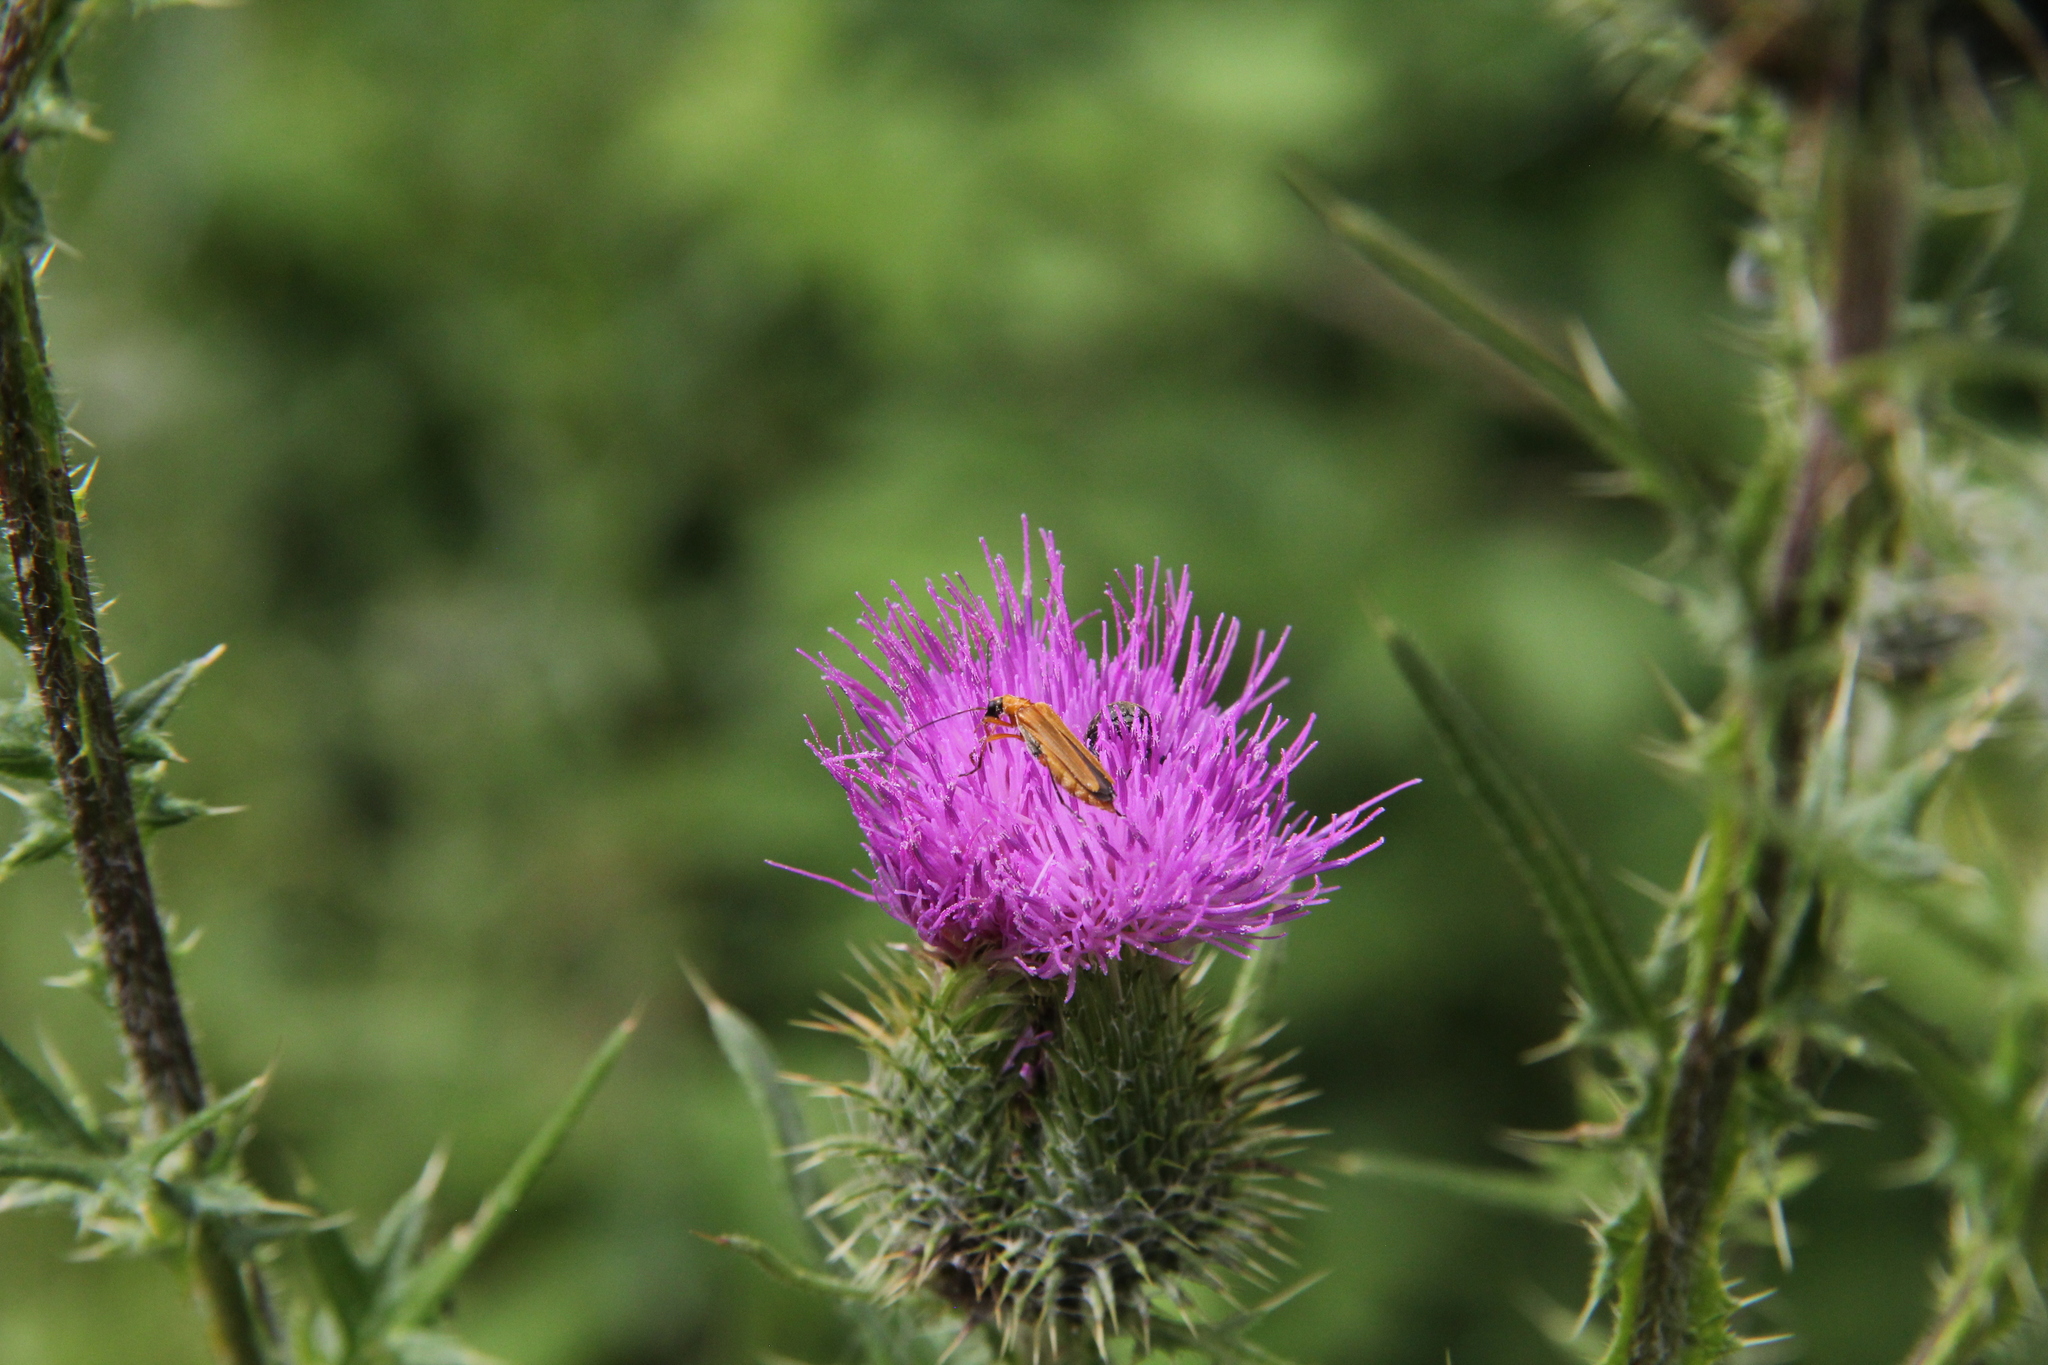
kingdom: Animalia
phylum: Arthropoda
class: Insecta
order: Coleoptera
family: Oedemeridae
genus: Oedemera
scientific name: Oedemera podagrariae
